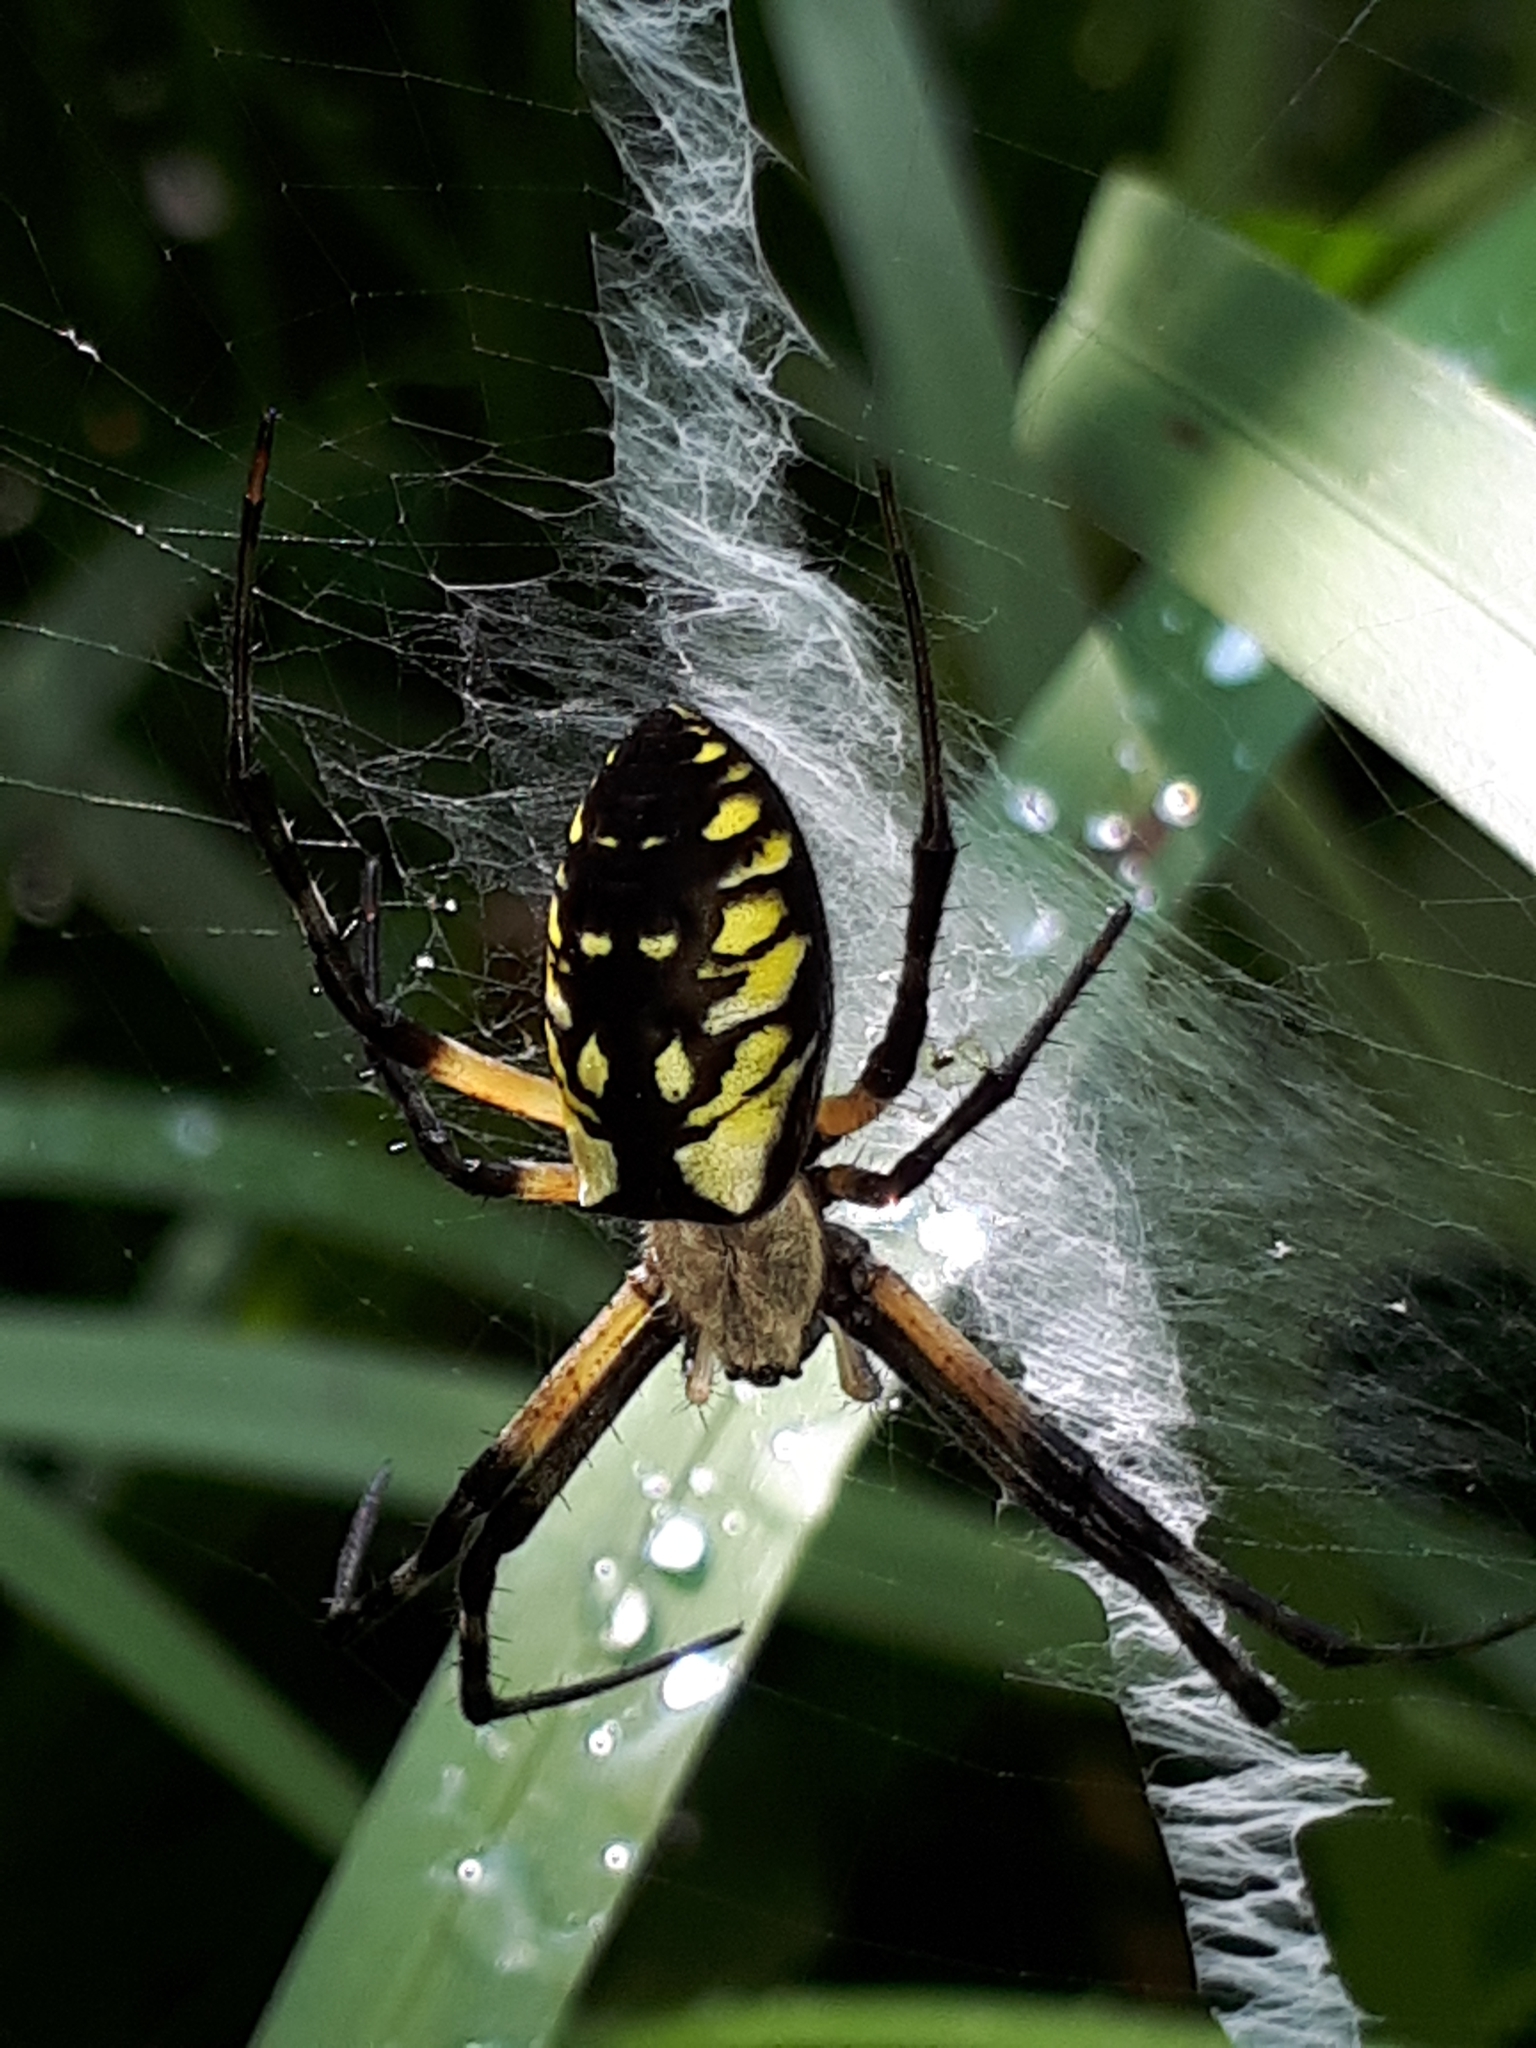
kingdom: Animalia
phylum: Arthropoda
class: Arachnida
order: Araneae
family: Araneidae
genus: Argiope
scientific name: Argiope aurantia
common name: Orb weavers
